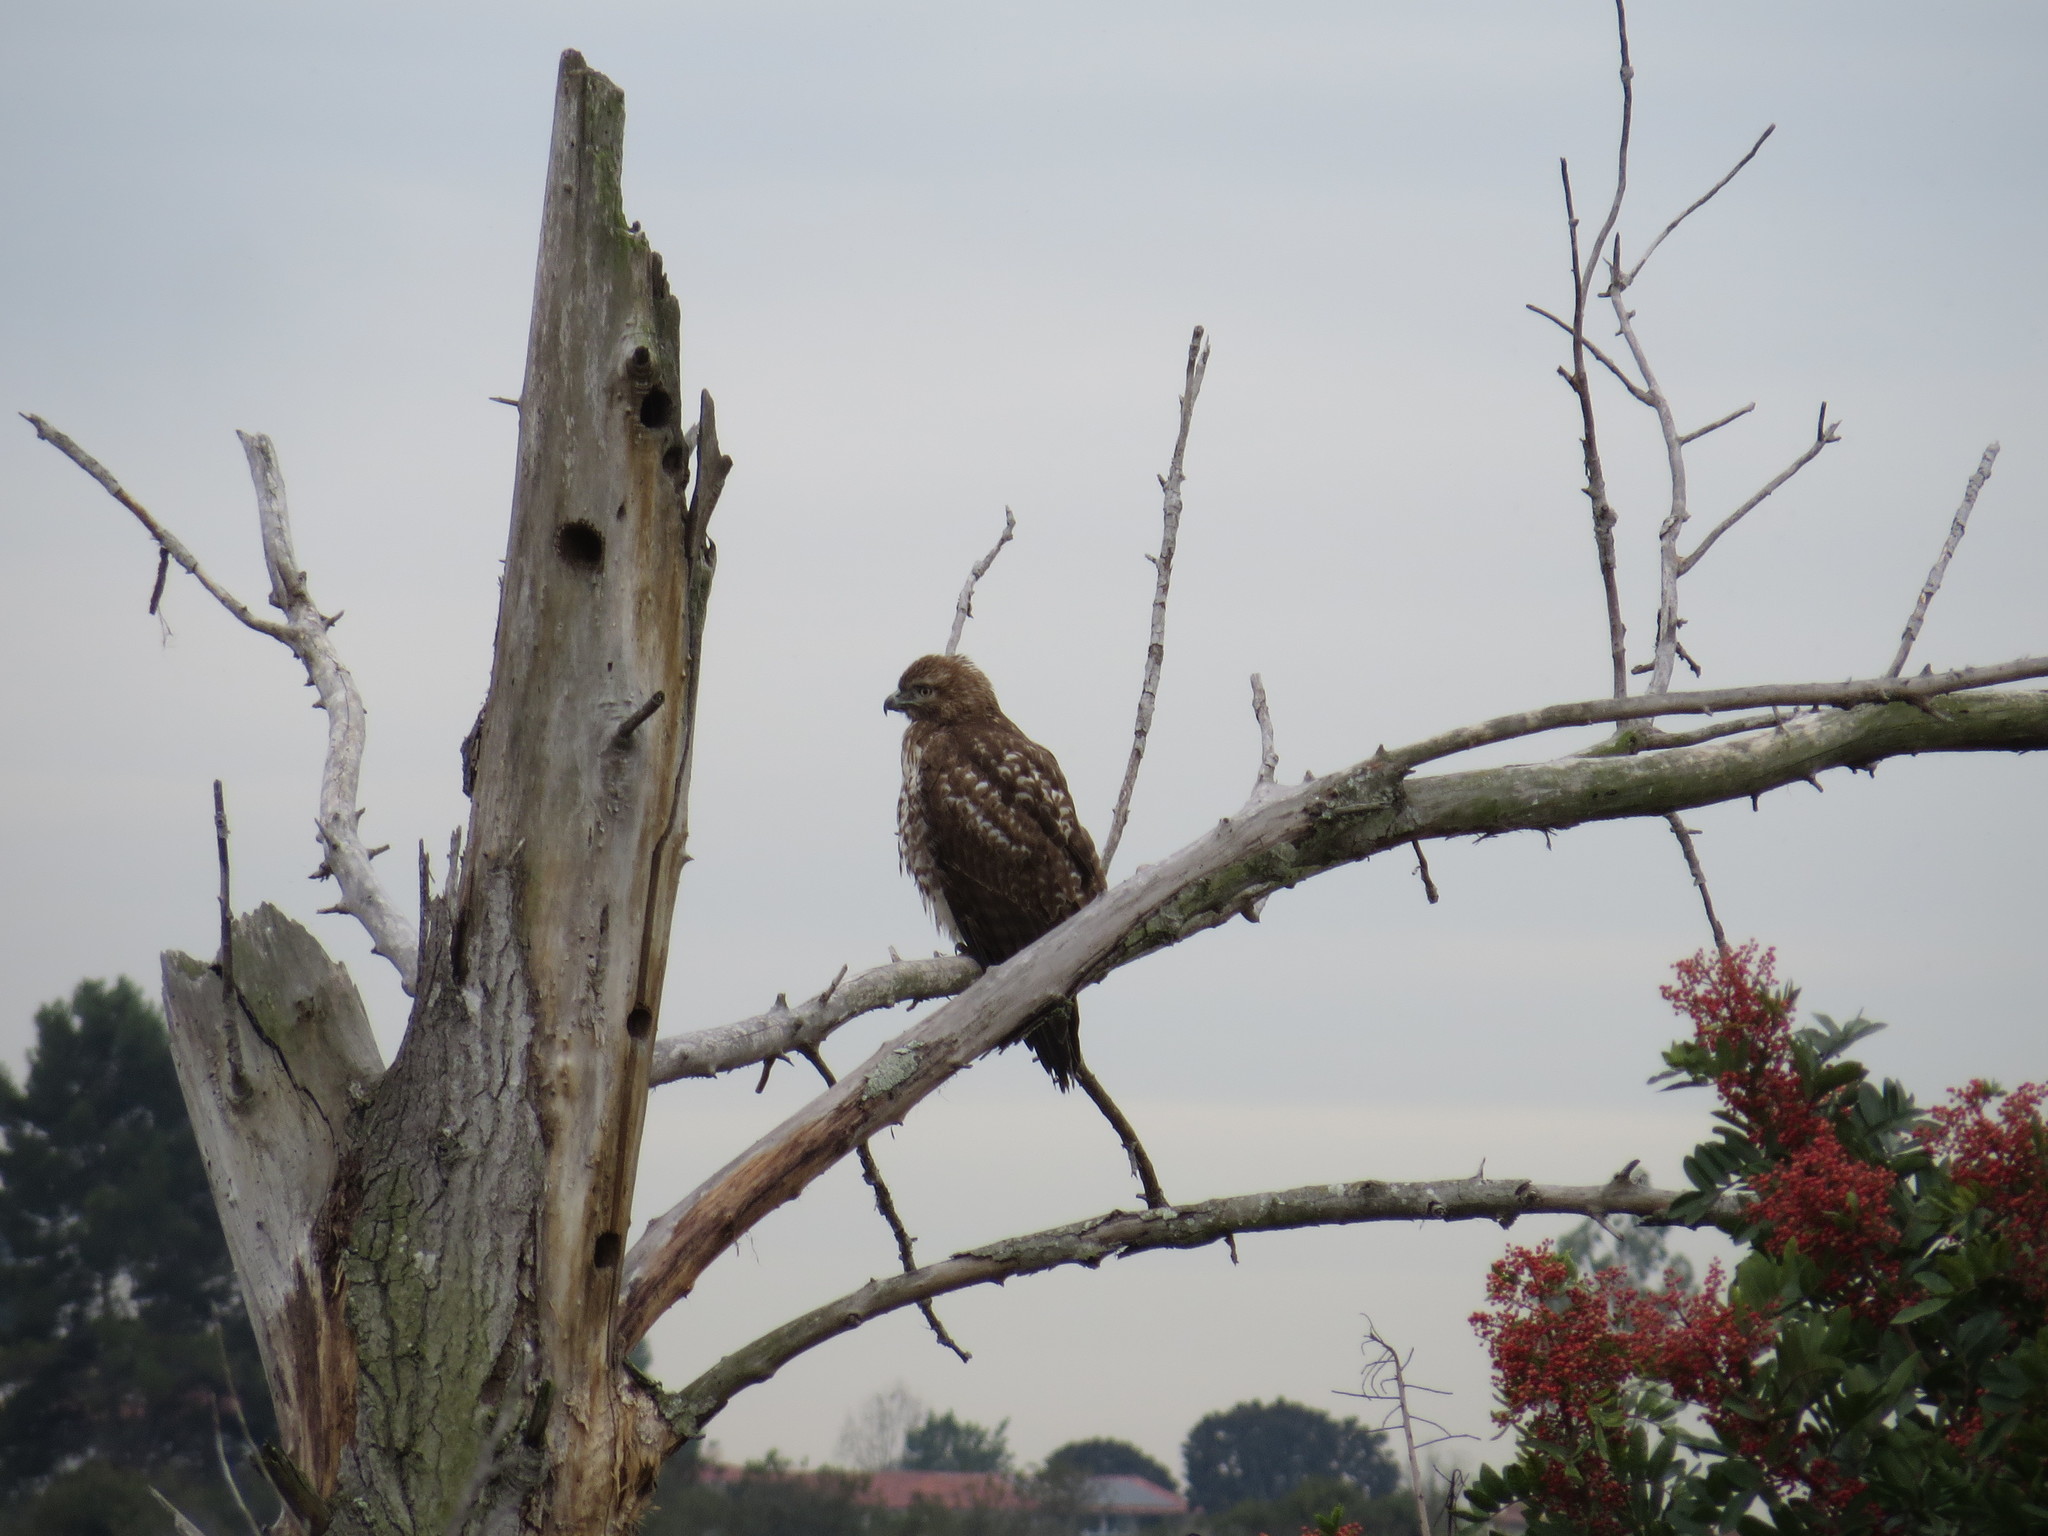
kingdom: Animalia
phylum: Chordata
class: Aves
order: Accipitriformes
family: Accipitridae
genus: Buteo
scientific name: Buteo jamaicensis
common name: Red-tailed hawk
